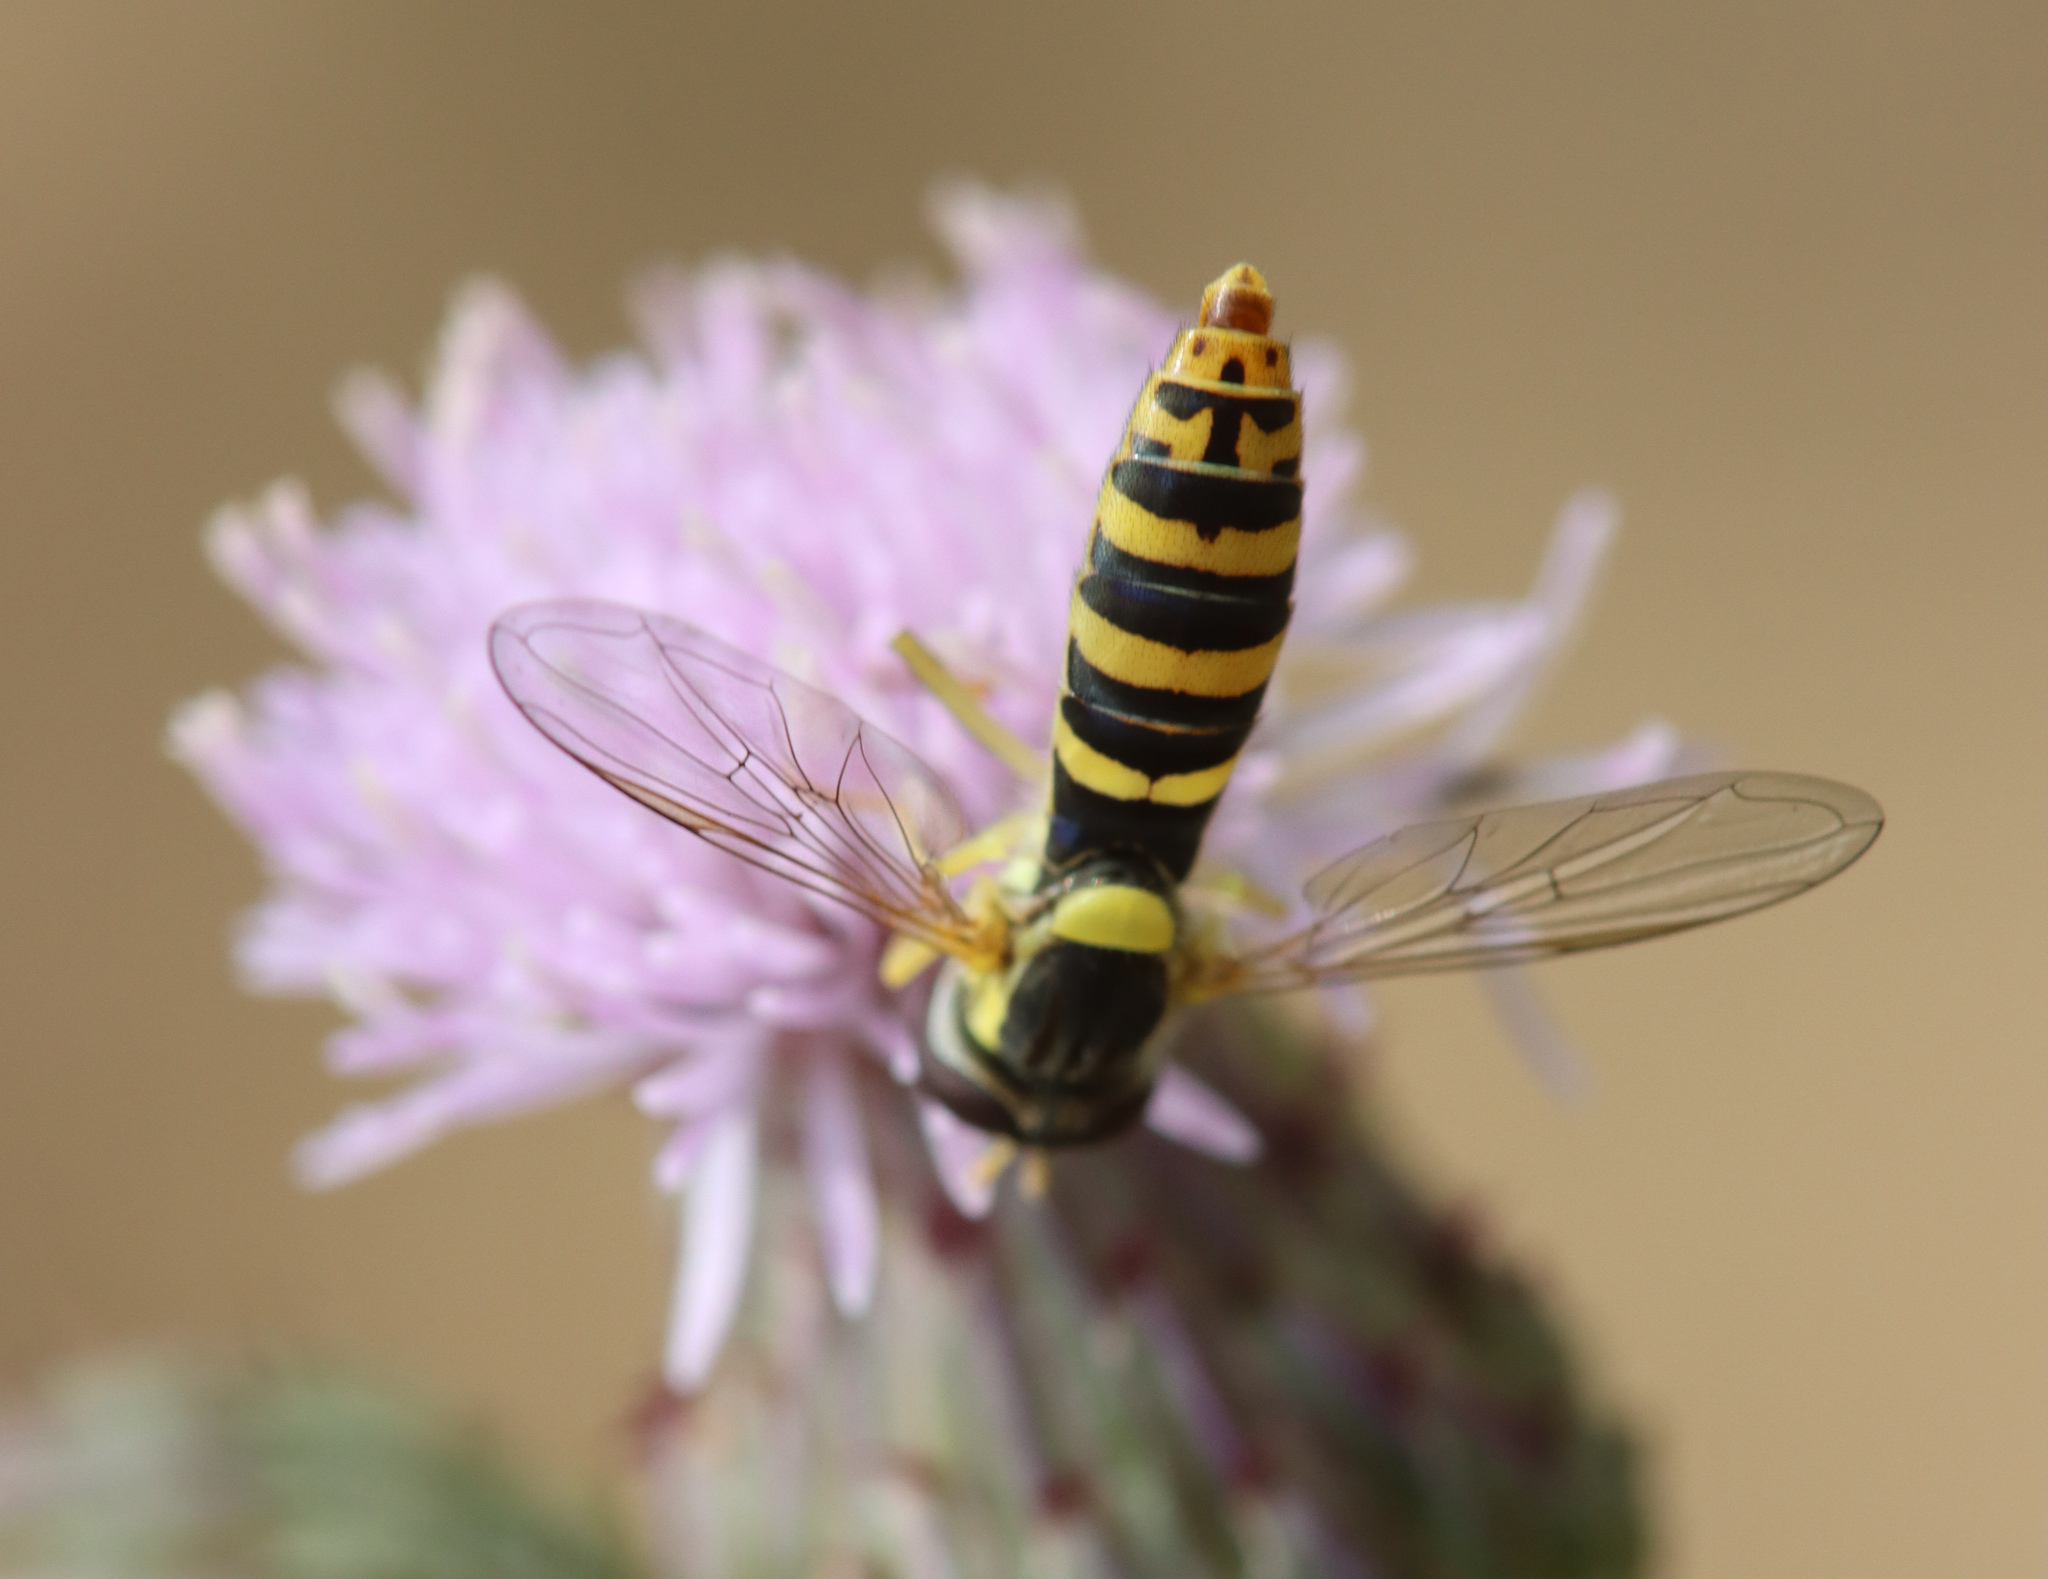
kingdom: Animalia
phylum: Arthropoda
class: Insecta
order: Diptera
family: Syrphidae
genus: Sphaerophoria
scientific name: Sphaerophoria
